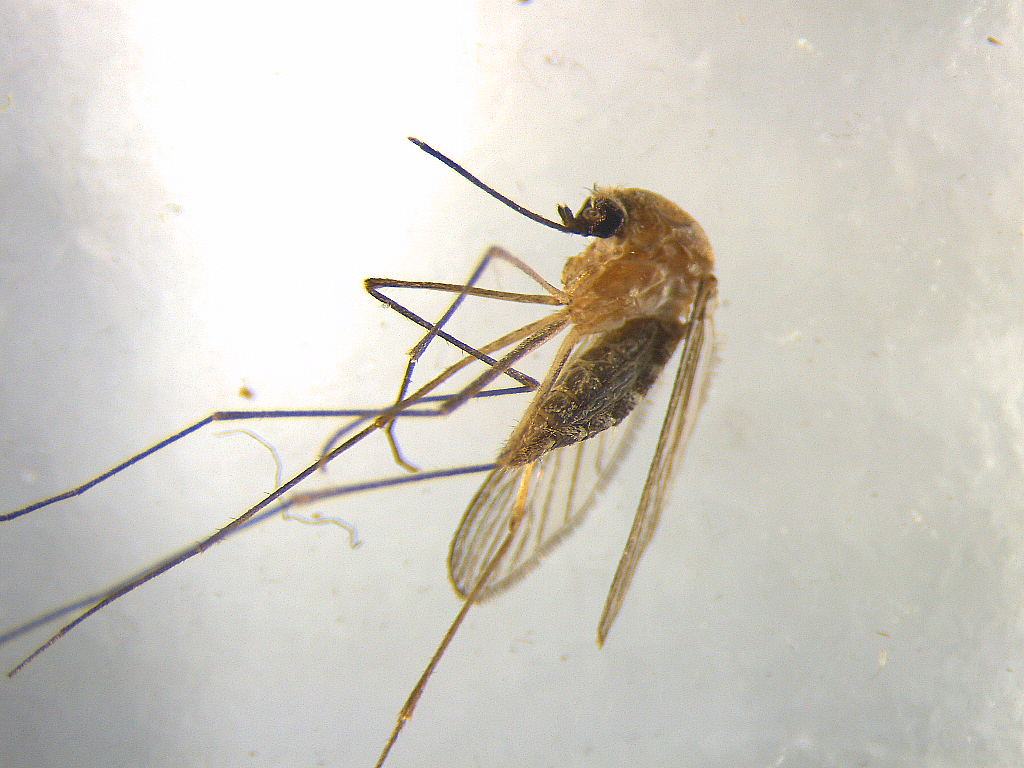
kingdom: Animalia
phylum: Arthropoda
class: Insecta
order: Diptera
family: Culicidae
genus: Culex
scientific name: Culex pervigilans
